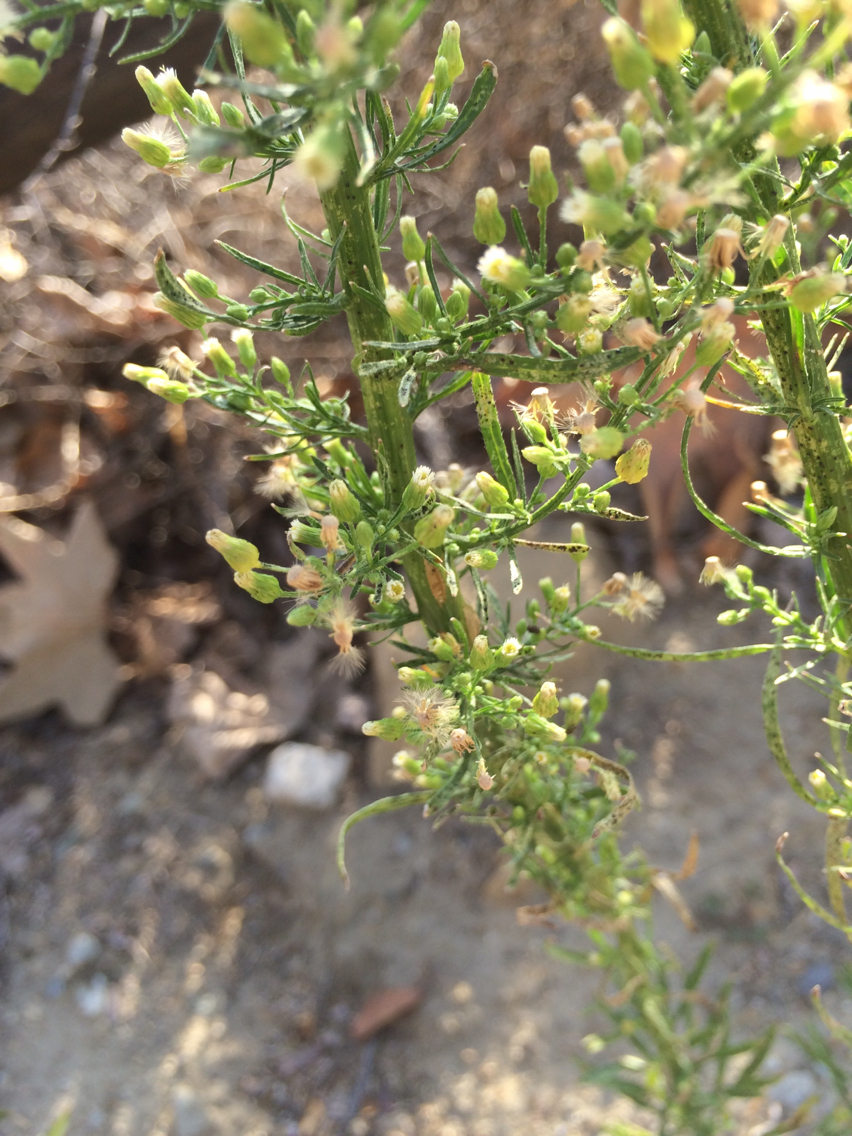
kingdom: Plantae
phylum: Tracheophyta
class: Magnoliopsida
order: Asterales
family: Asteraceae
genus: Erigeron
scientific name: Erigeron canadensis
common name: Canadian fleabane
